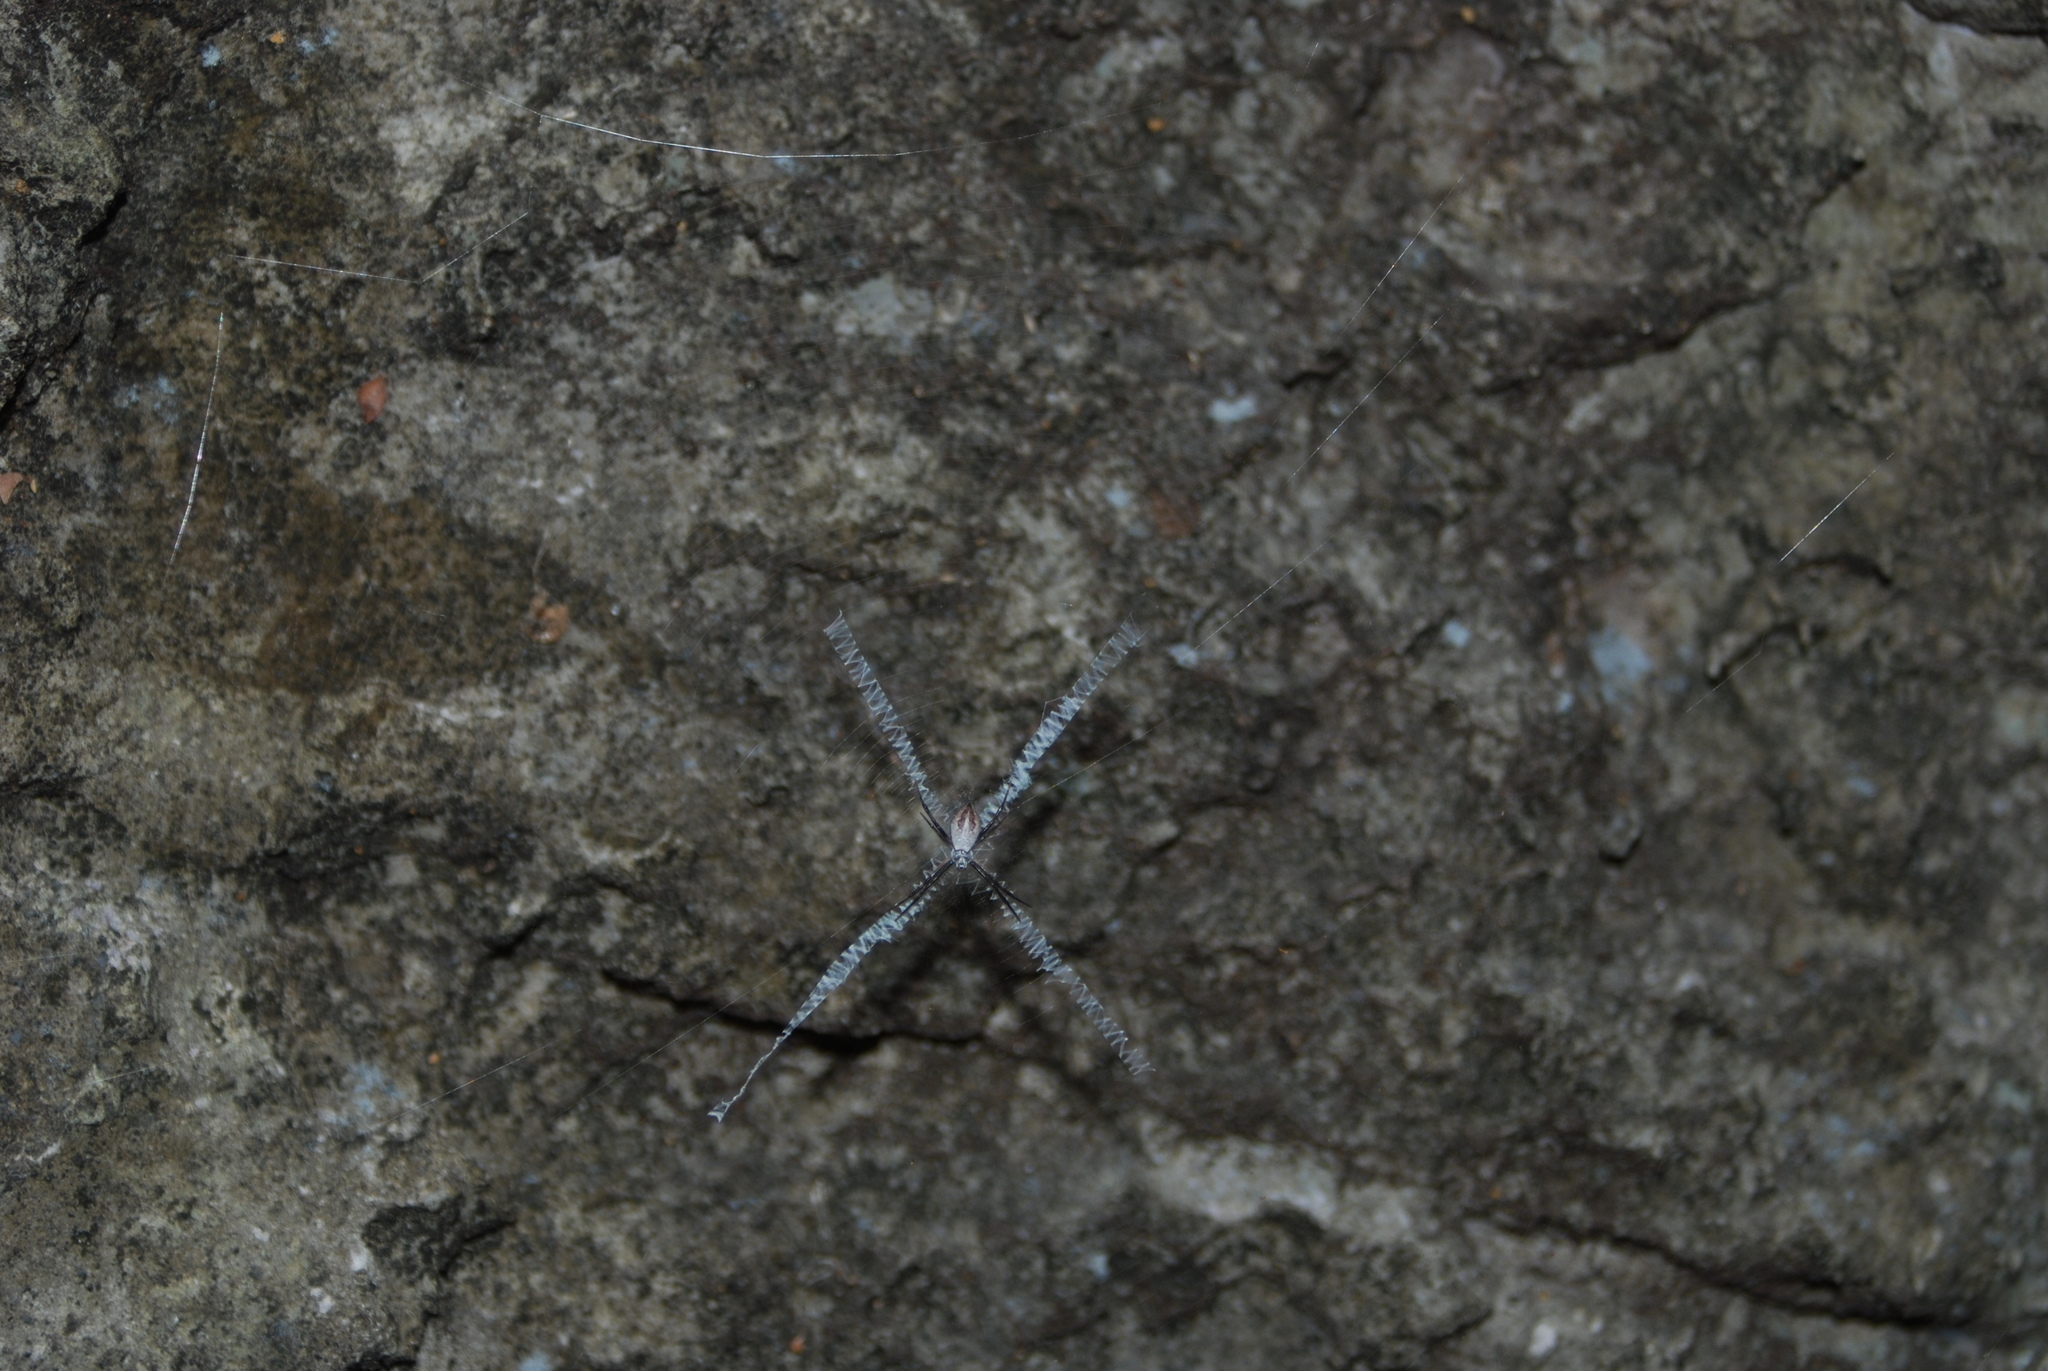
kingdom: Animalia
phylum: Arthropoda
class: Arachnida
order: Araneae
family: Araneidae
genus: Argiope
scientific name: Argiope submaronica
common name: Orb weavers
